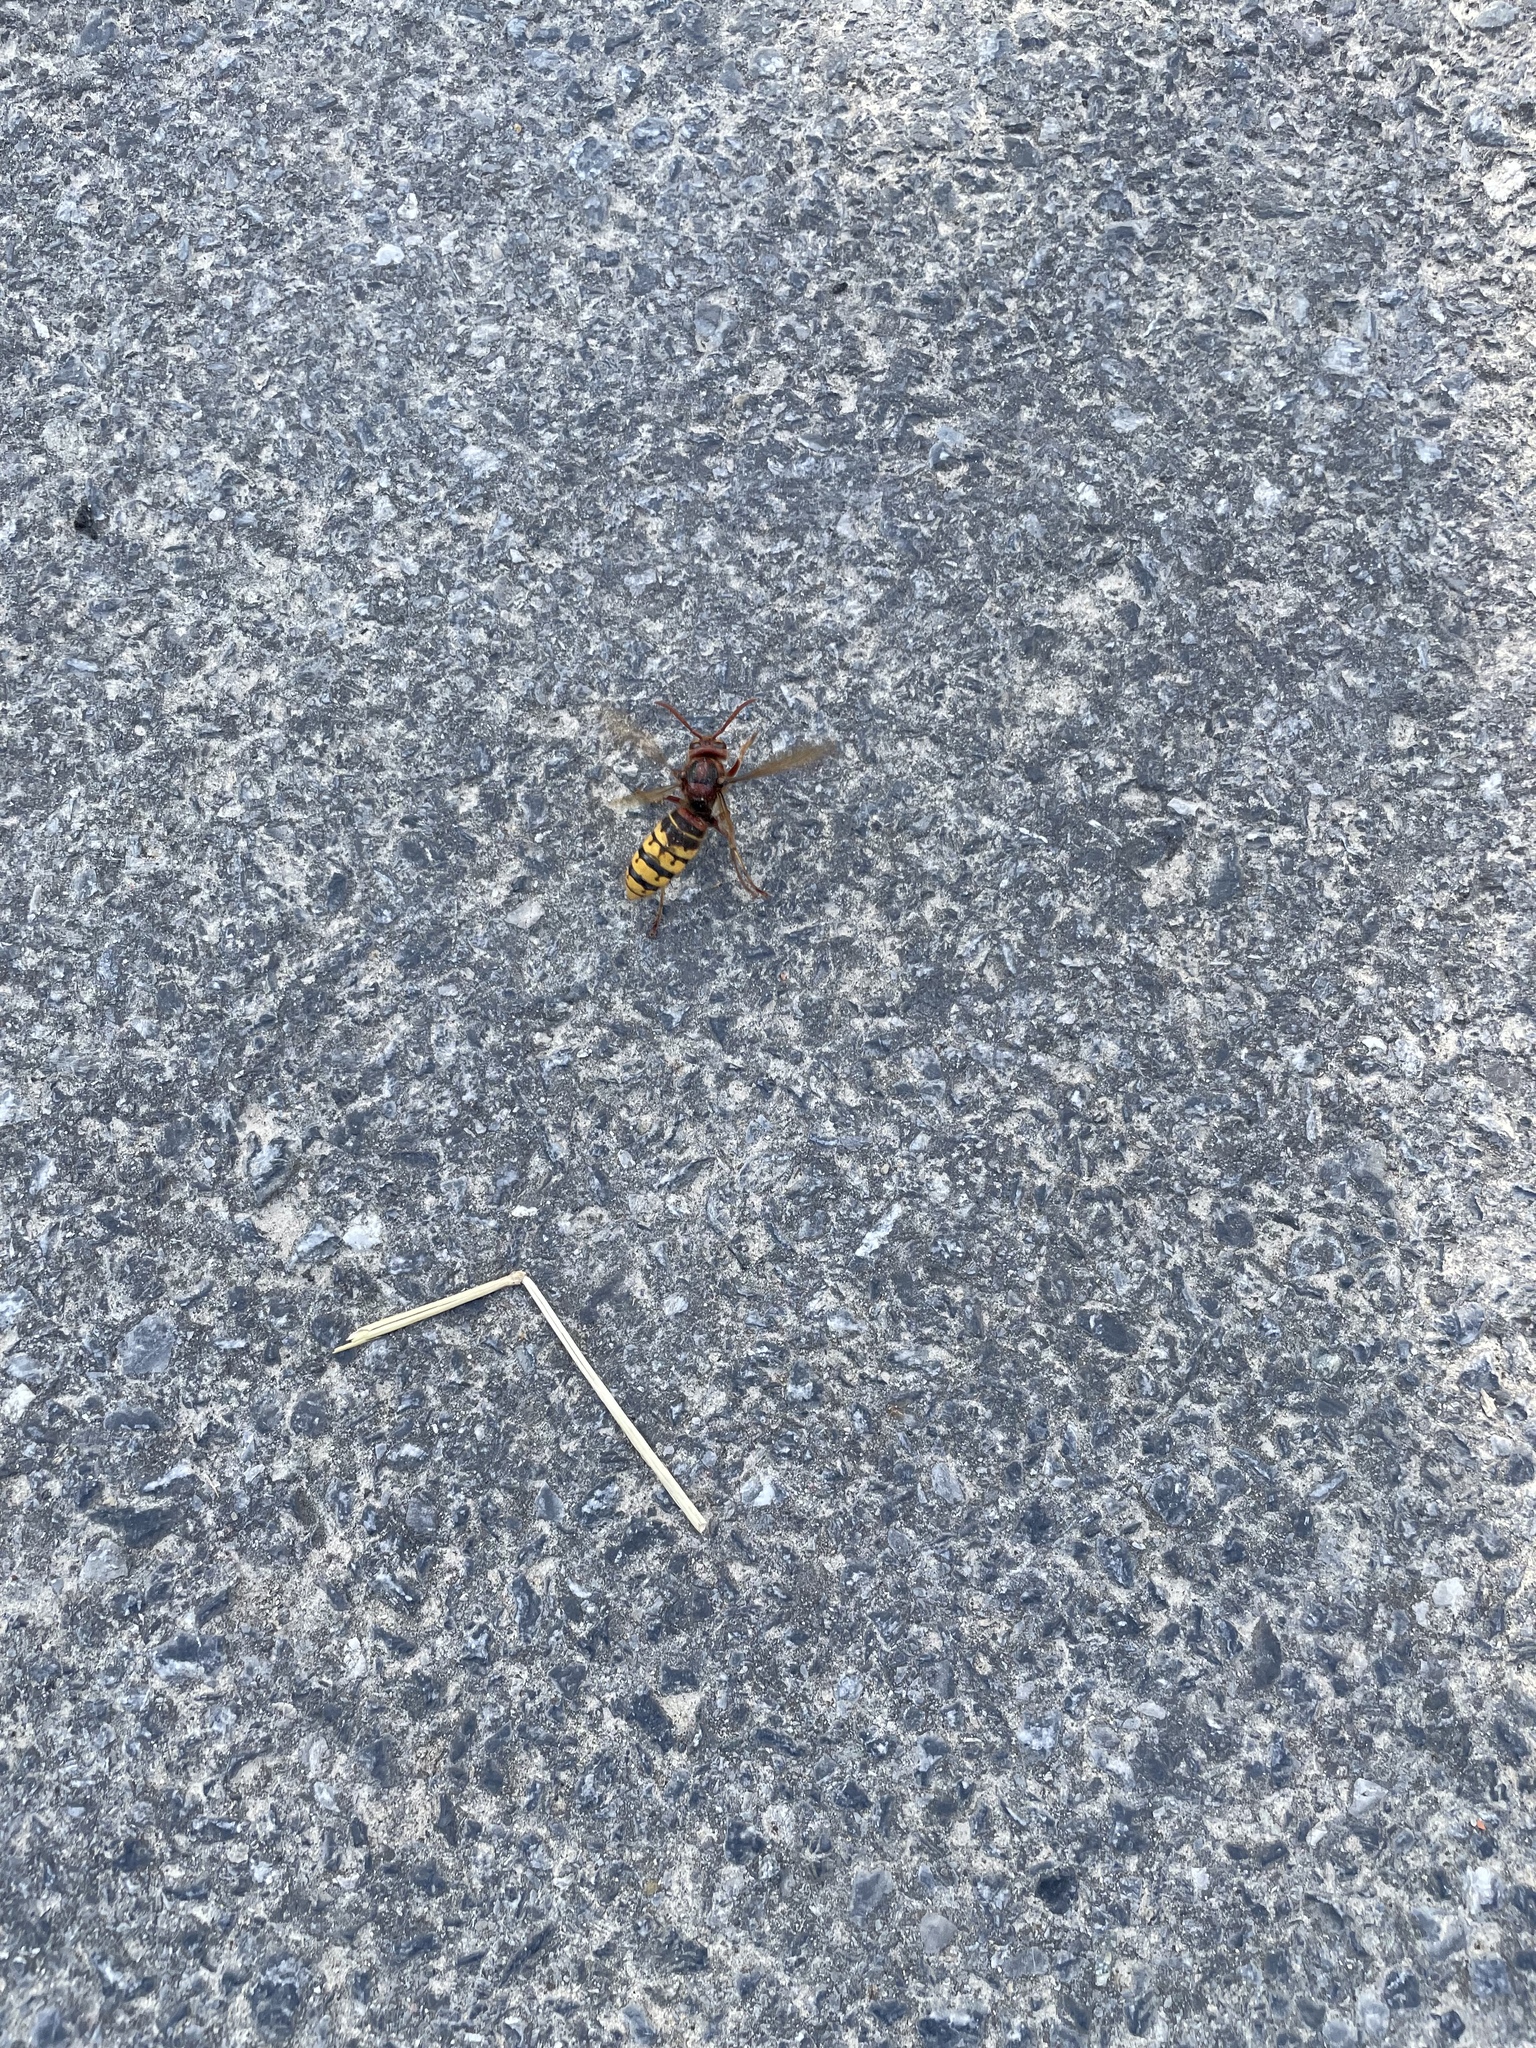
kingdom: Animalia
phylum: Arthropoda
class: Insecta
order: Hymenoptera
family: Vespidae
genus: Vespa
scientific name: Vespa crabro
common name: Hornet
